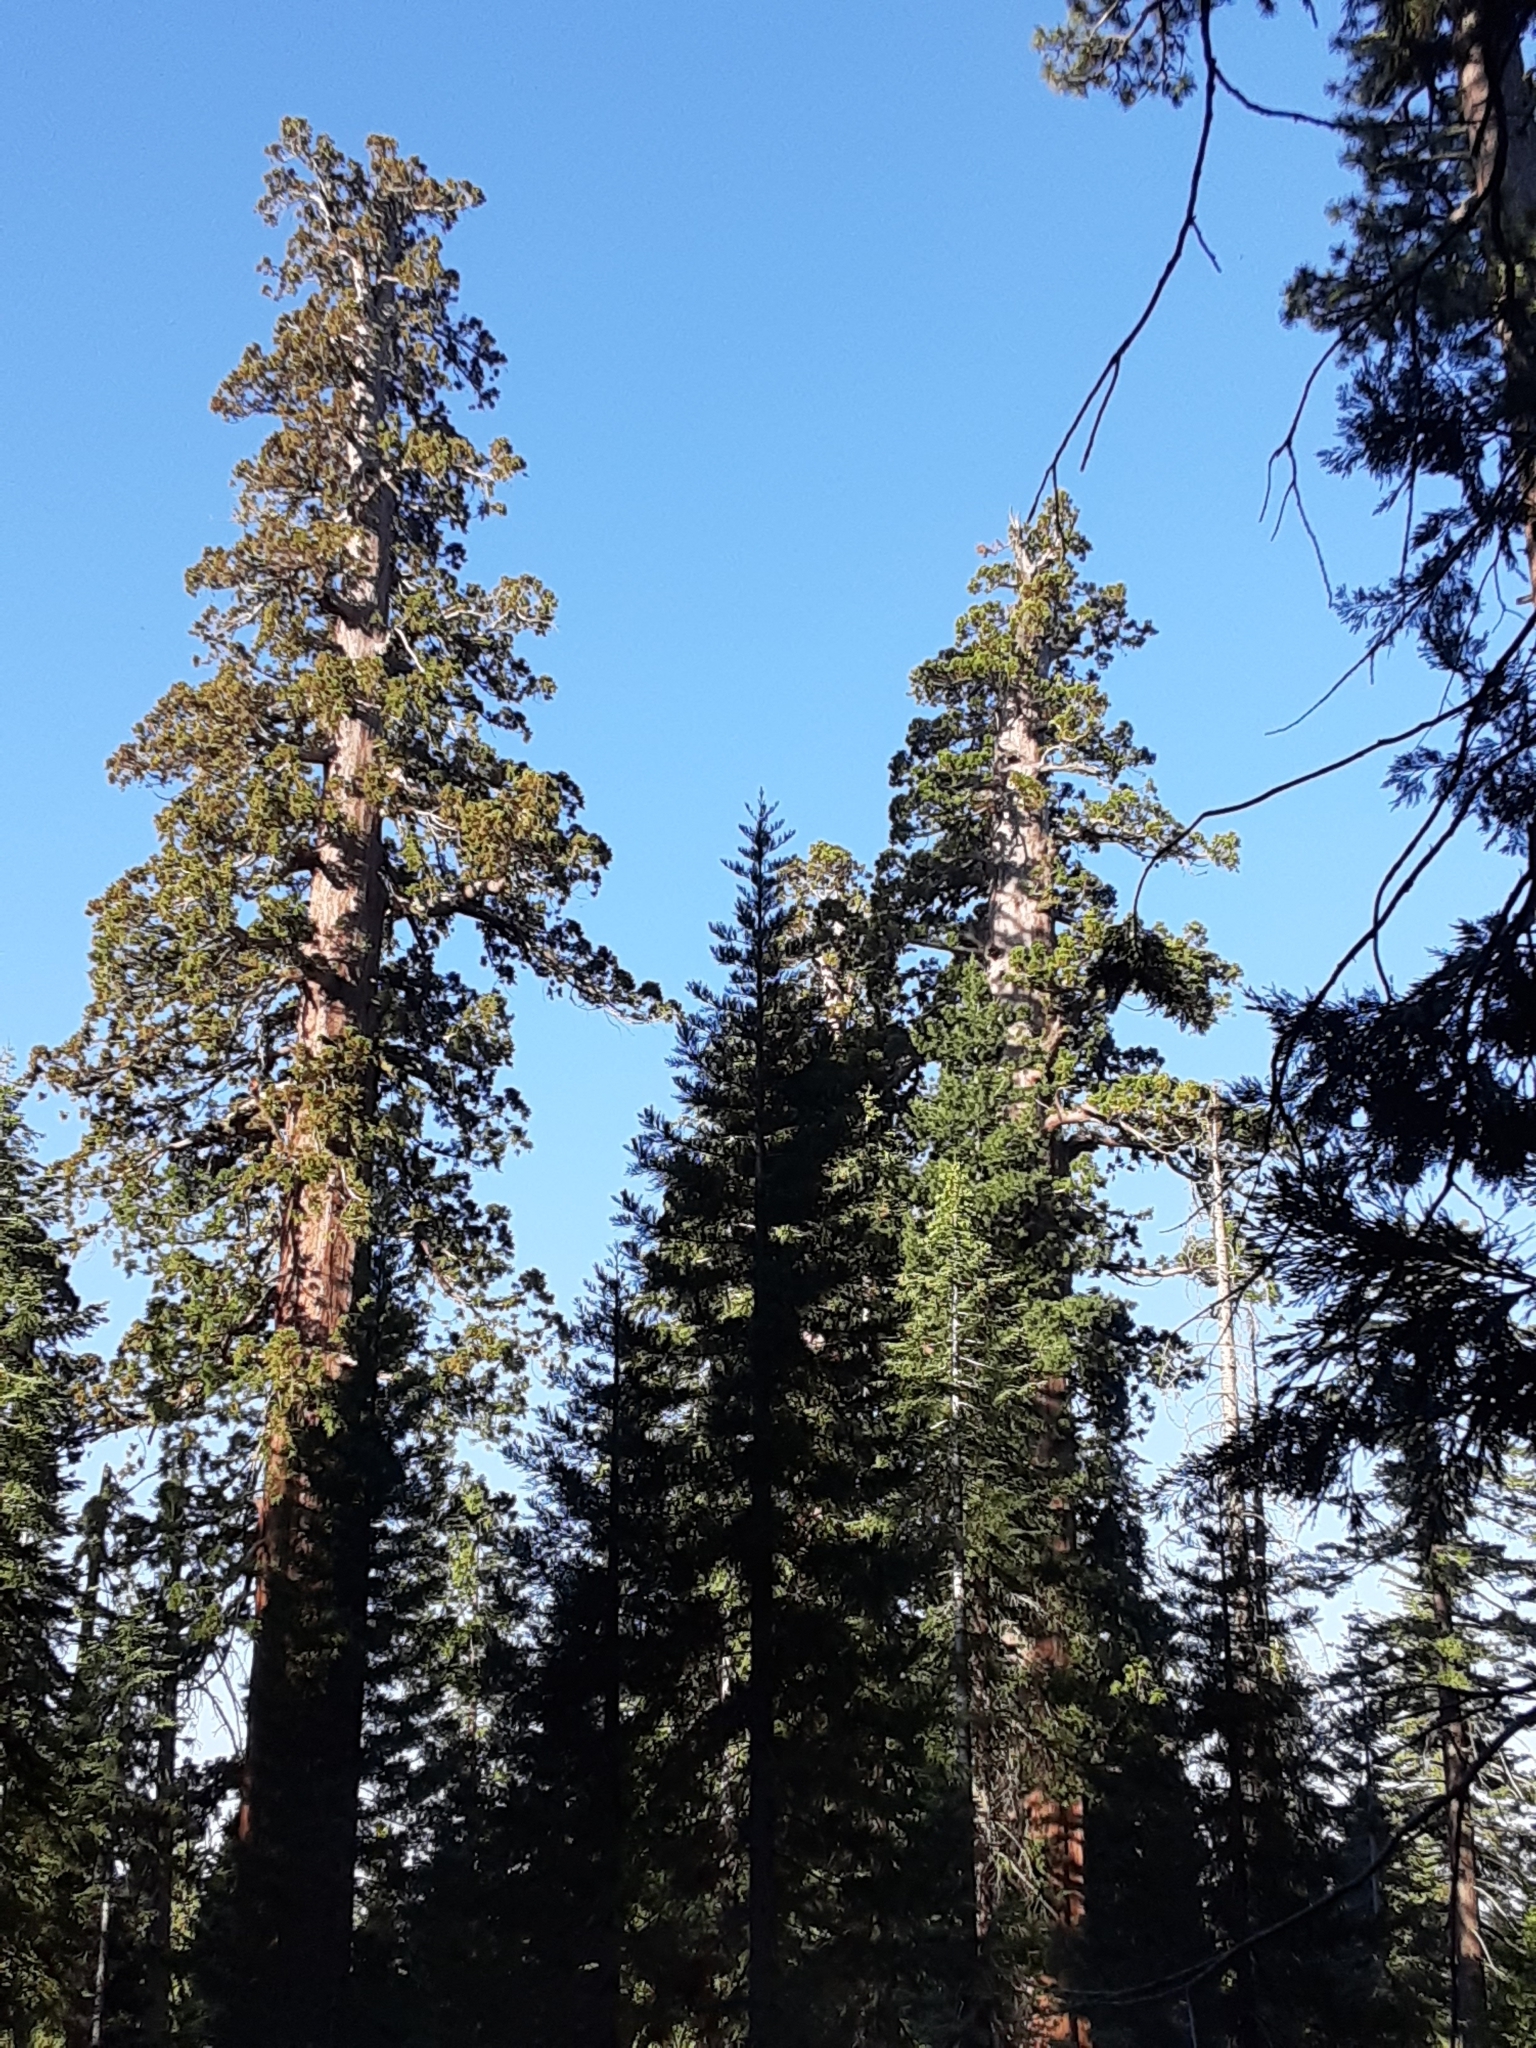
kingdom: Plantae
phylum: Tracheophyta
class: Pinopsida
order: Pinales
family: Cupressaceae
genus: Sequoiadendron
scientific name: Sequoiadendron giganteum
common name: Wellingtonia
